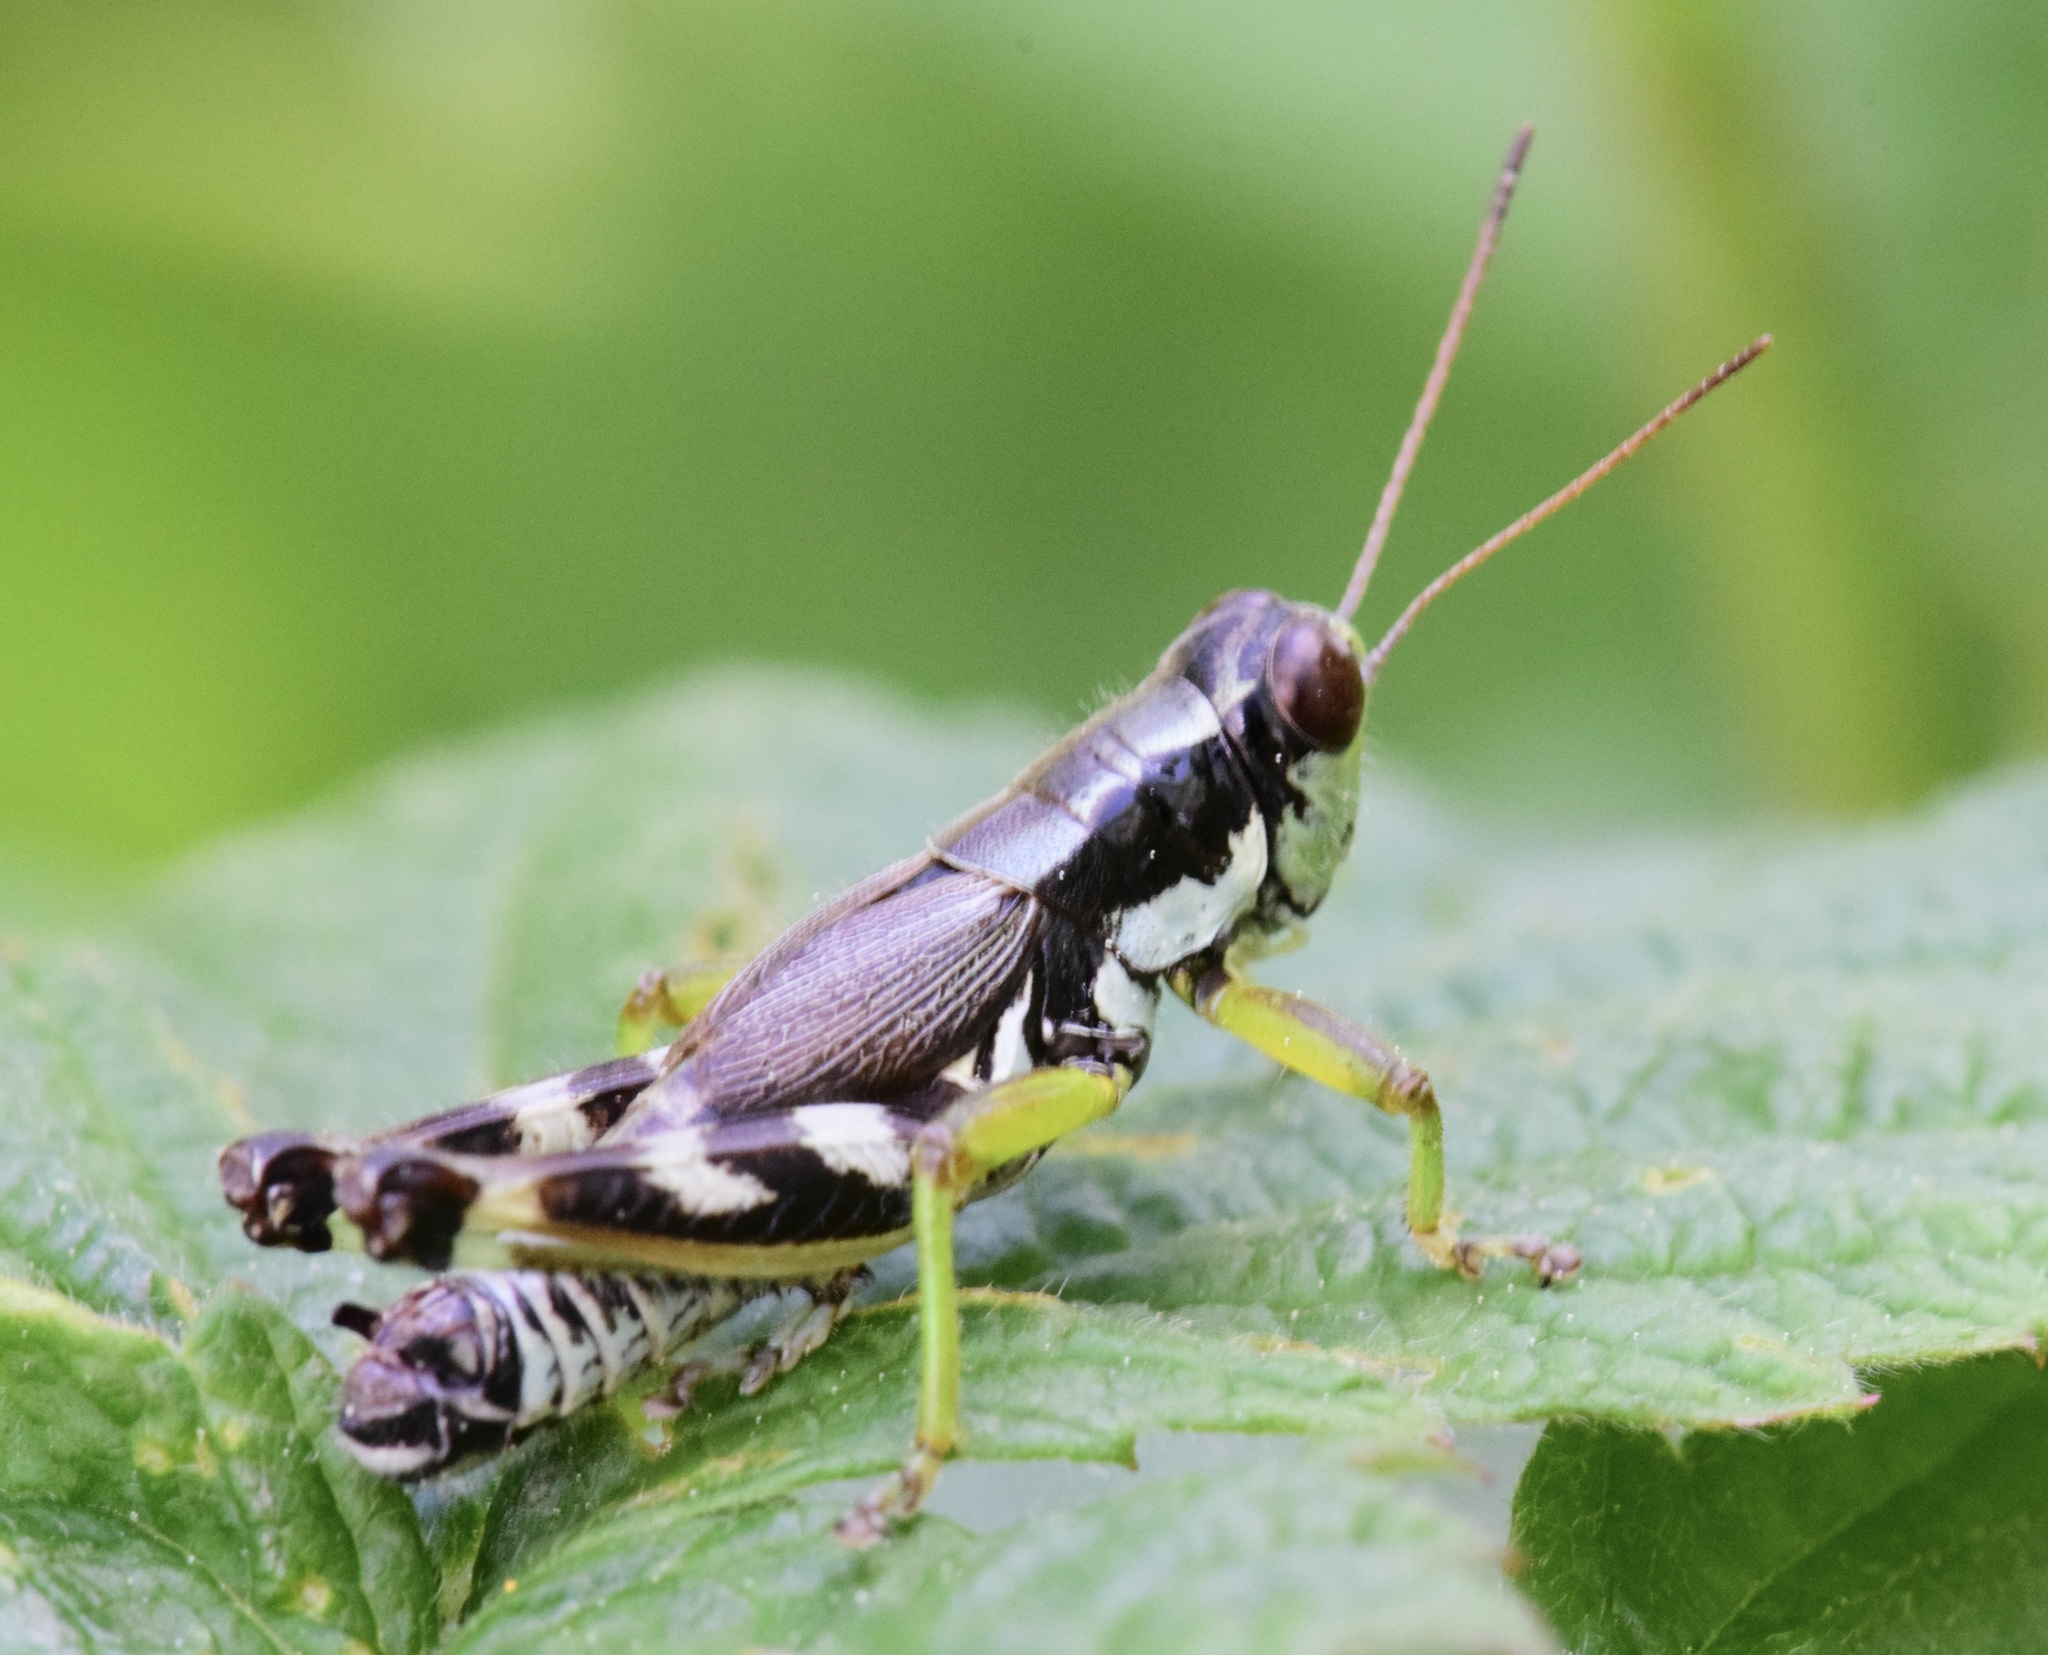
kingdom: Animalia
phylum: Arthropoda
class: Insecta
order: Orthoptera
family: Acrididae
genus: Melanoplus
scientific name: Melanoplus viridipes
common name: Green-legged locust
